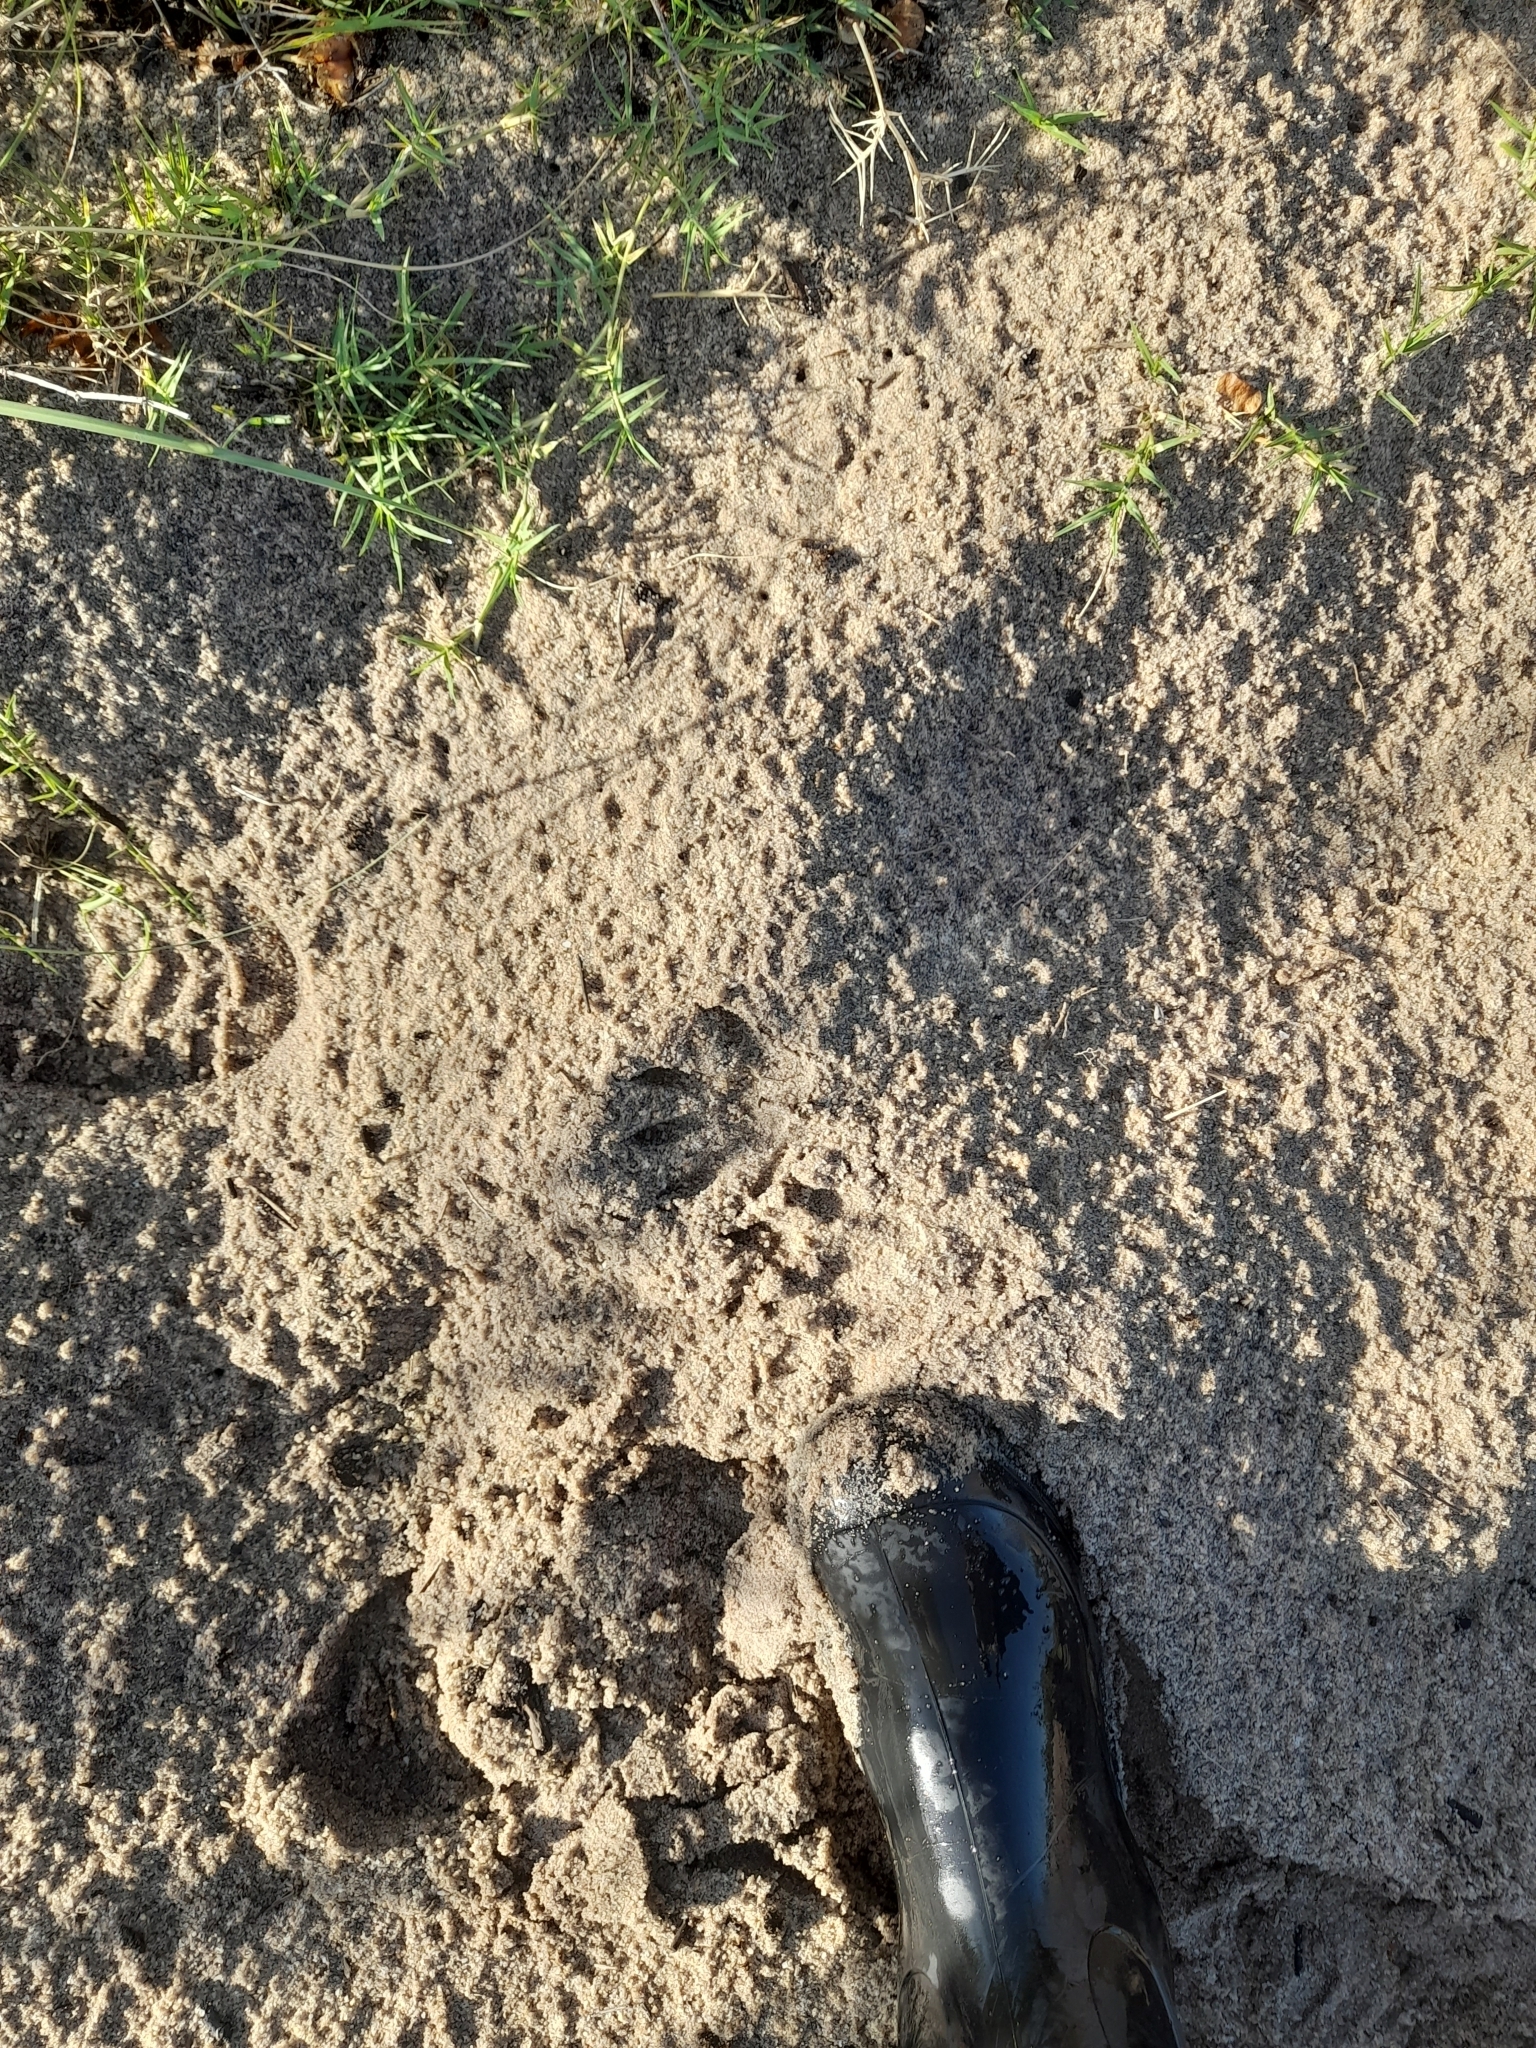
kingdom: Animalia
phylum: Chordata
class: Mammalia
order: Carnivora
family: Procyonidae
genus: Procyon
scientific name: Procyon cancrivorus
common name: Crab-eating raccoon
